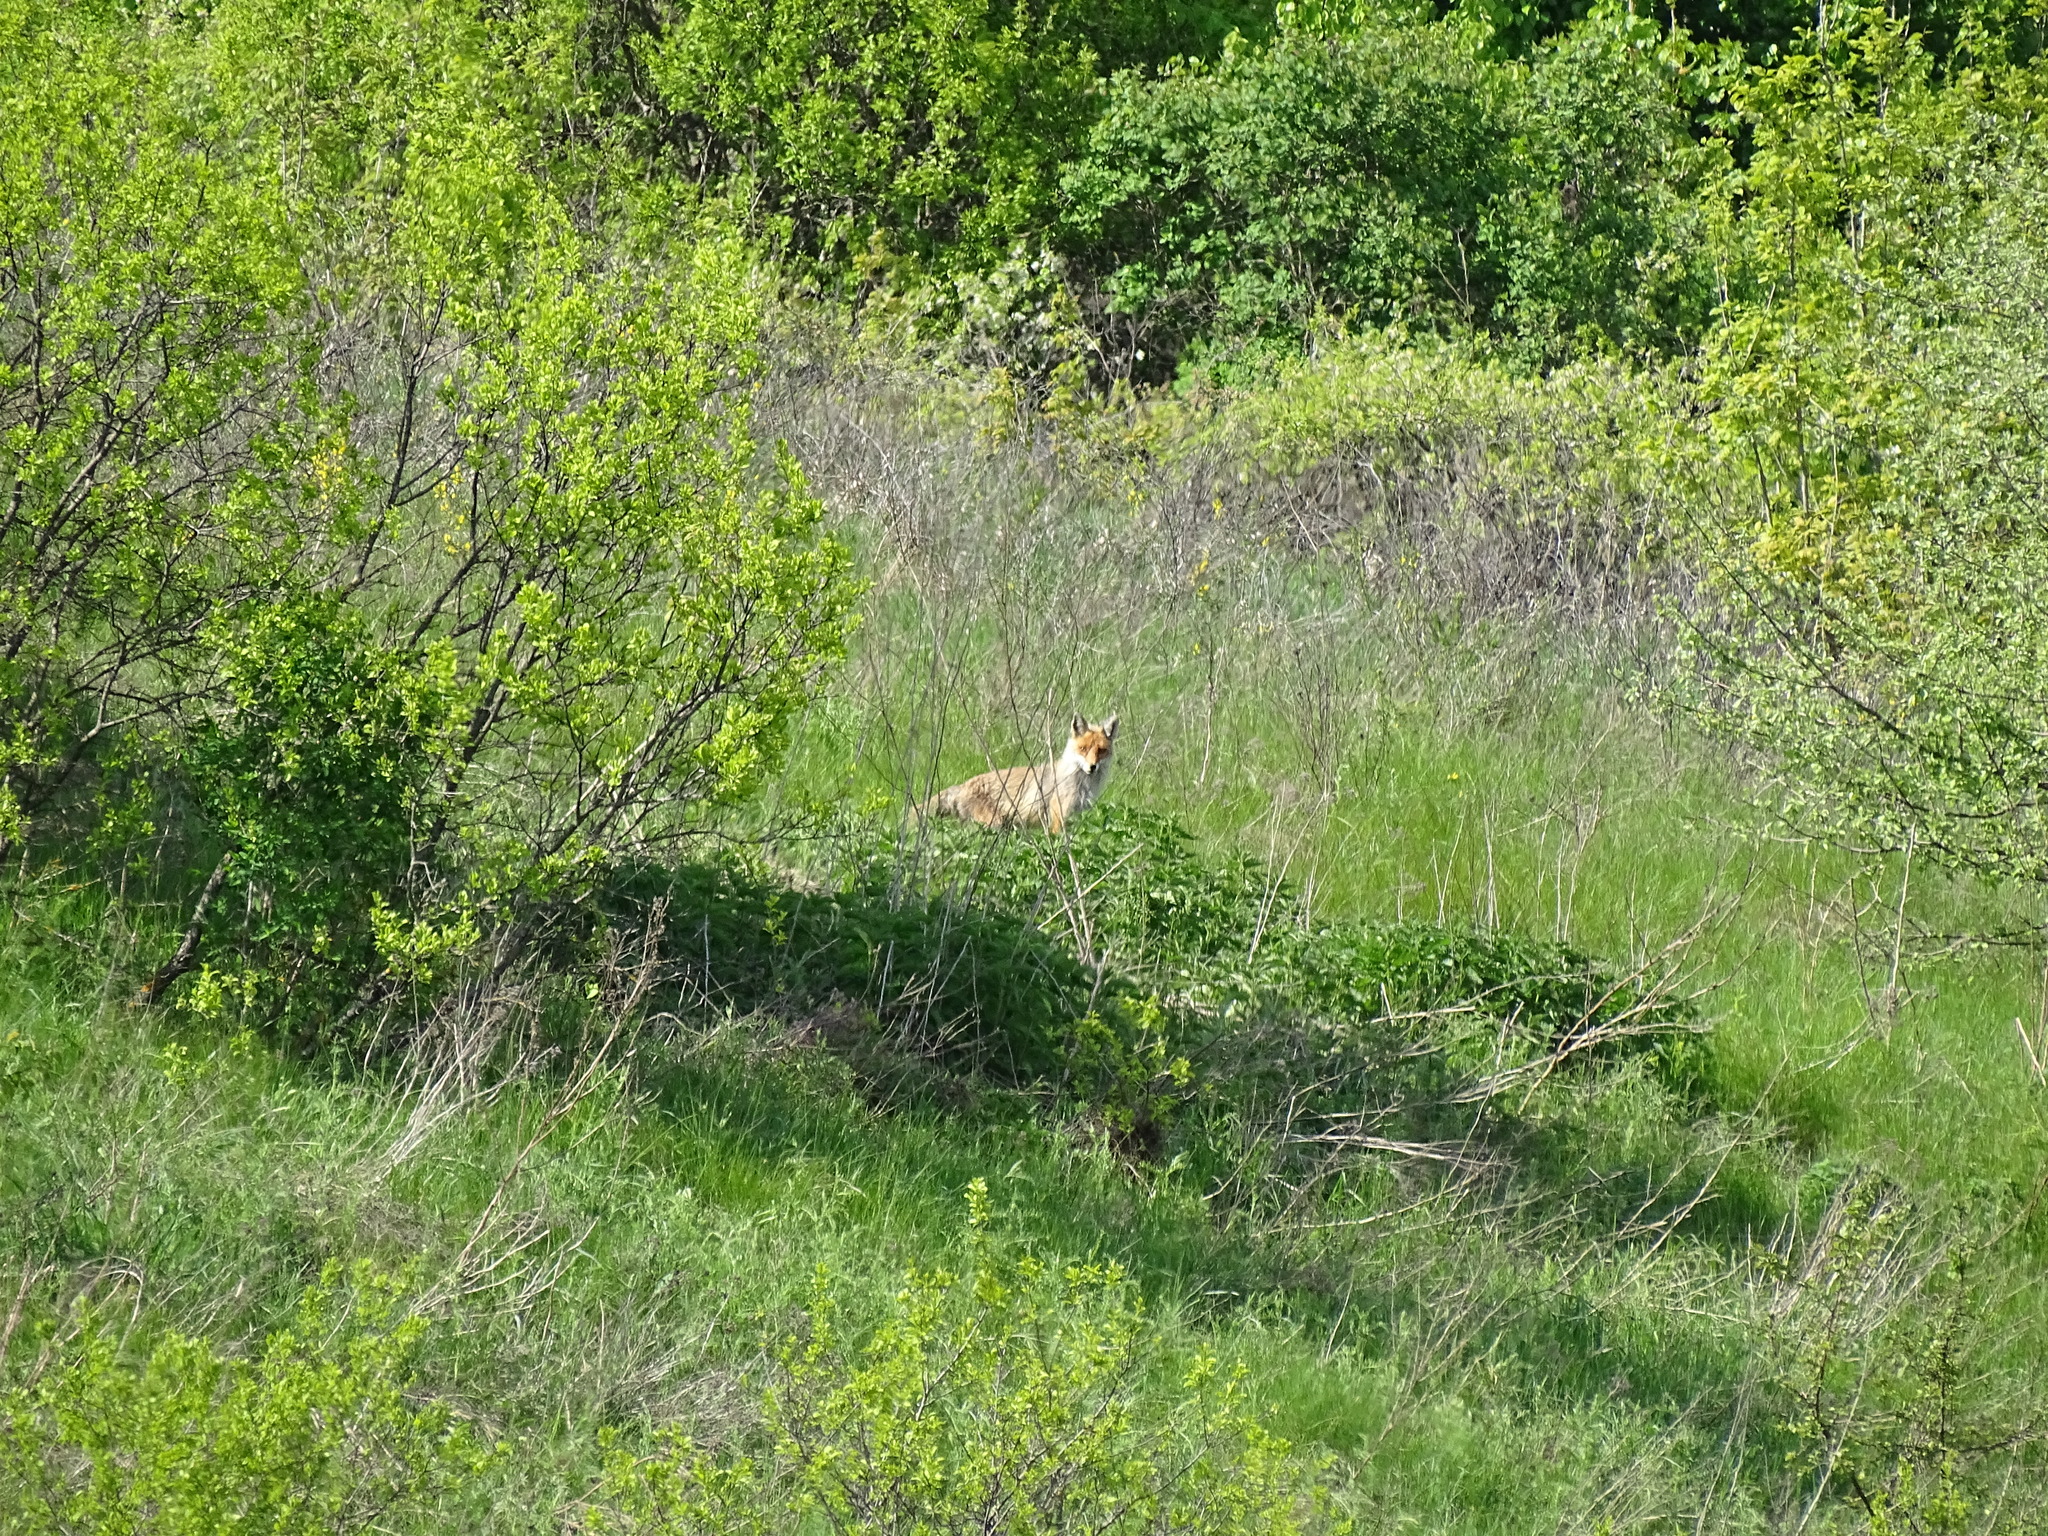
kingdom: Animalia
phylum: Chordata
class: Mammalia
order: Carnivora
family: Canidae
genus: Vulpes
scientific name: Vulpes vulpes
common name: Red fox
